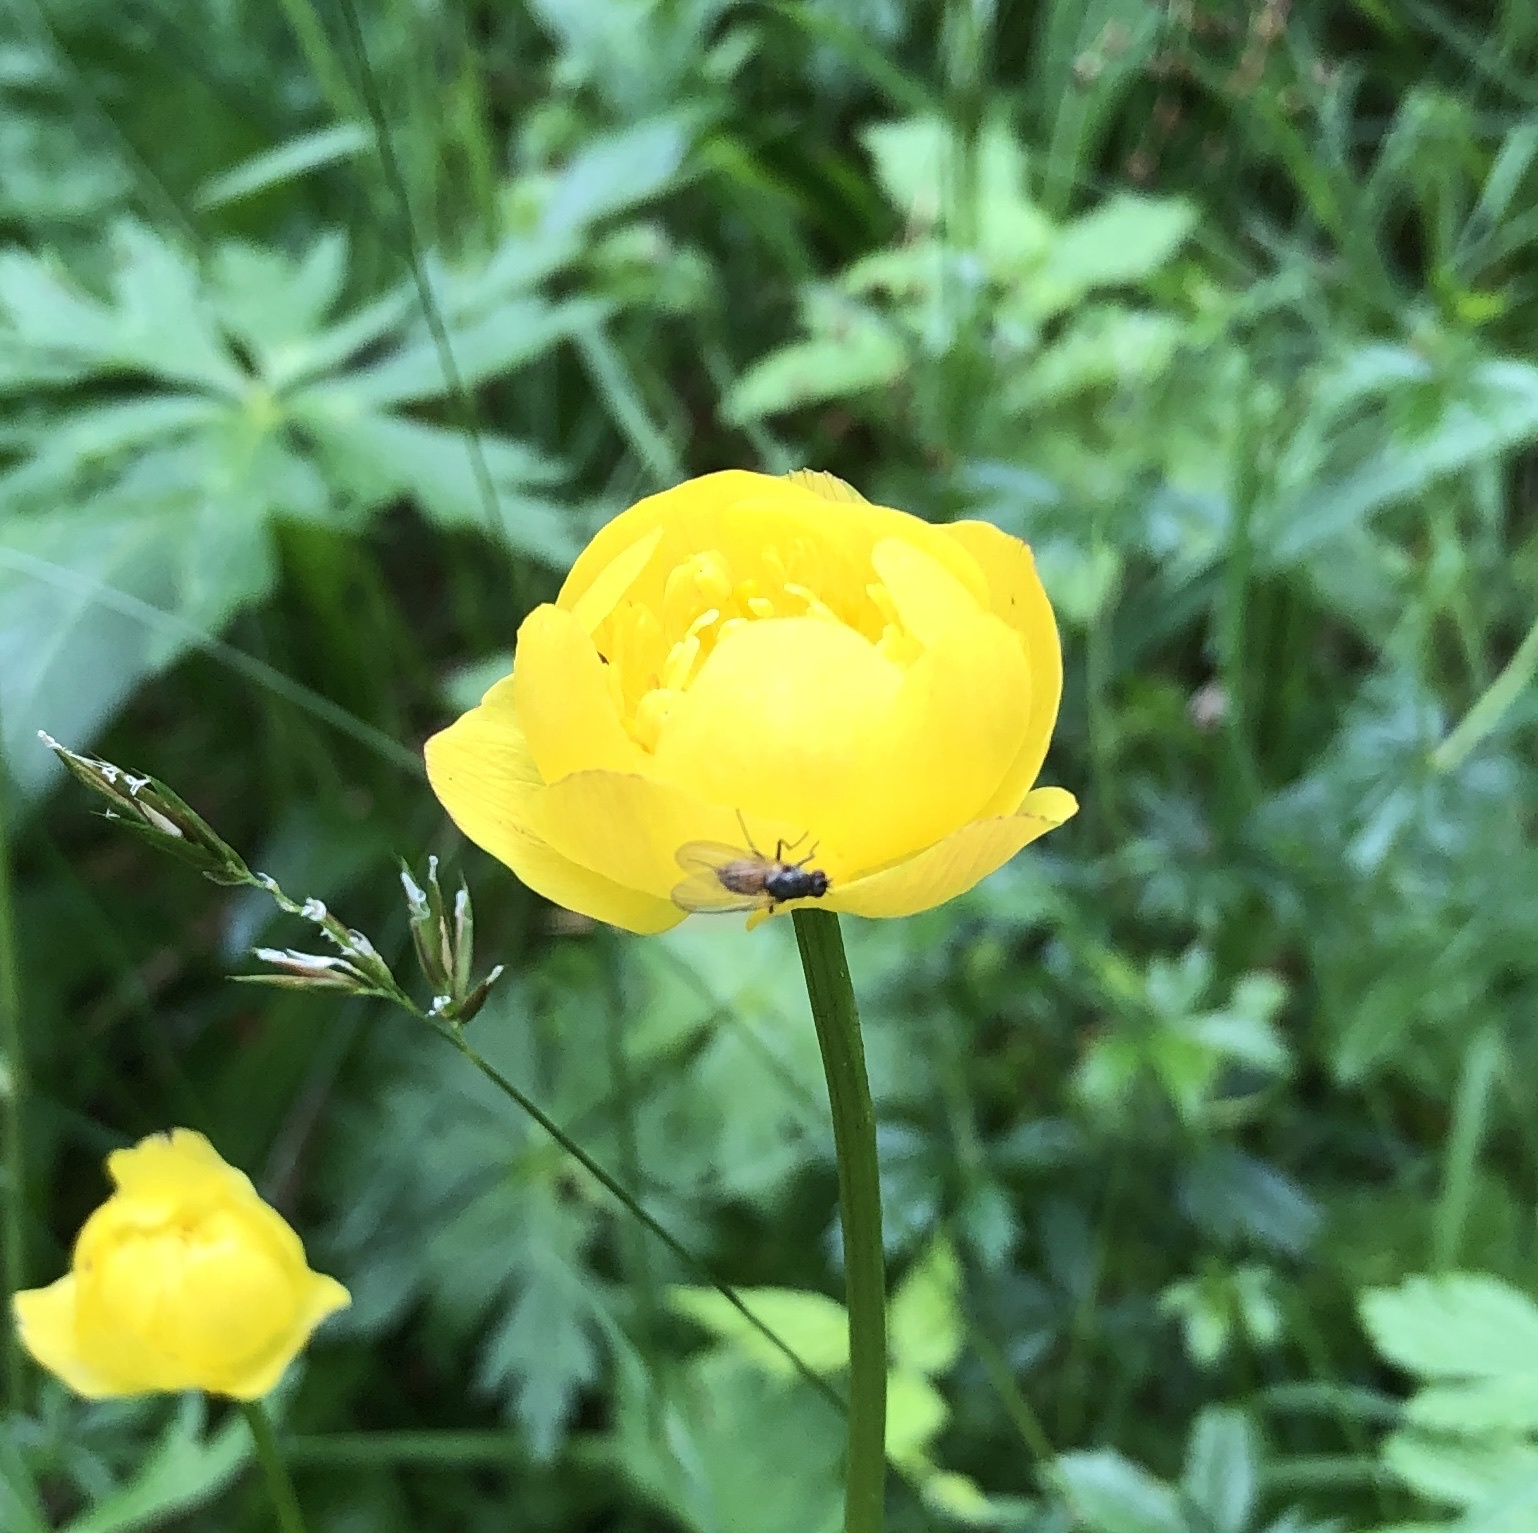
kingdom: Plantae
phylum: Tracheophyta
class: Magnoliopsida
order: Ranunculales
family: Ranunculaceae
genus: Trollius
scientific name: Trollius europaeus
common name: European globeflower
